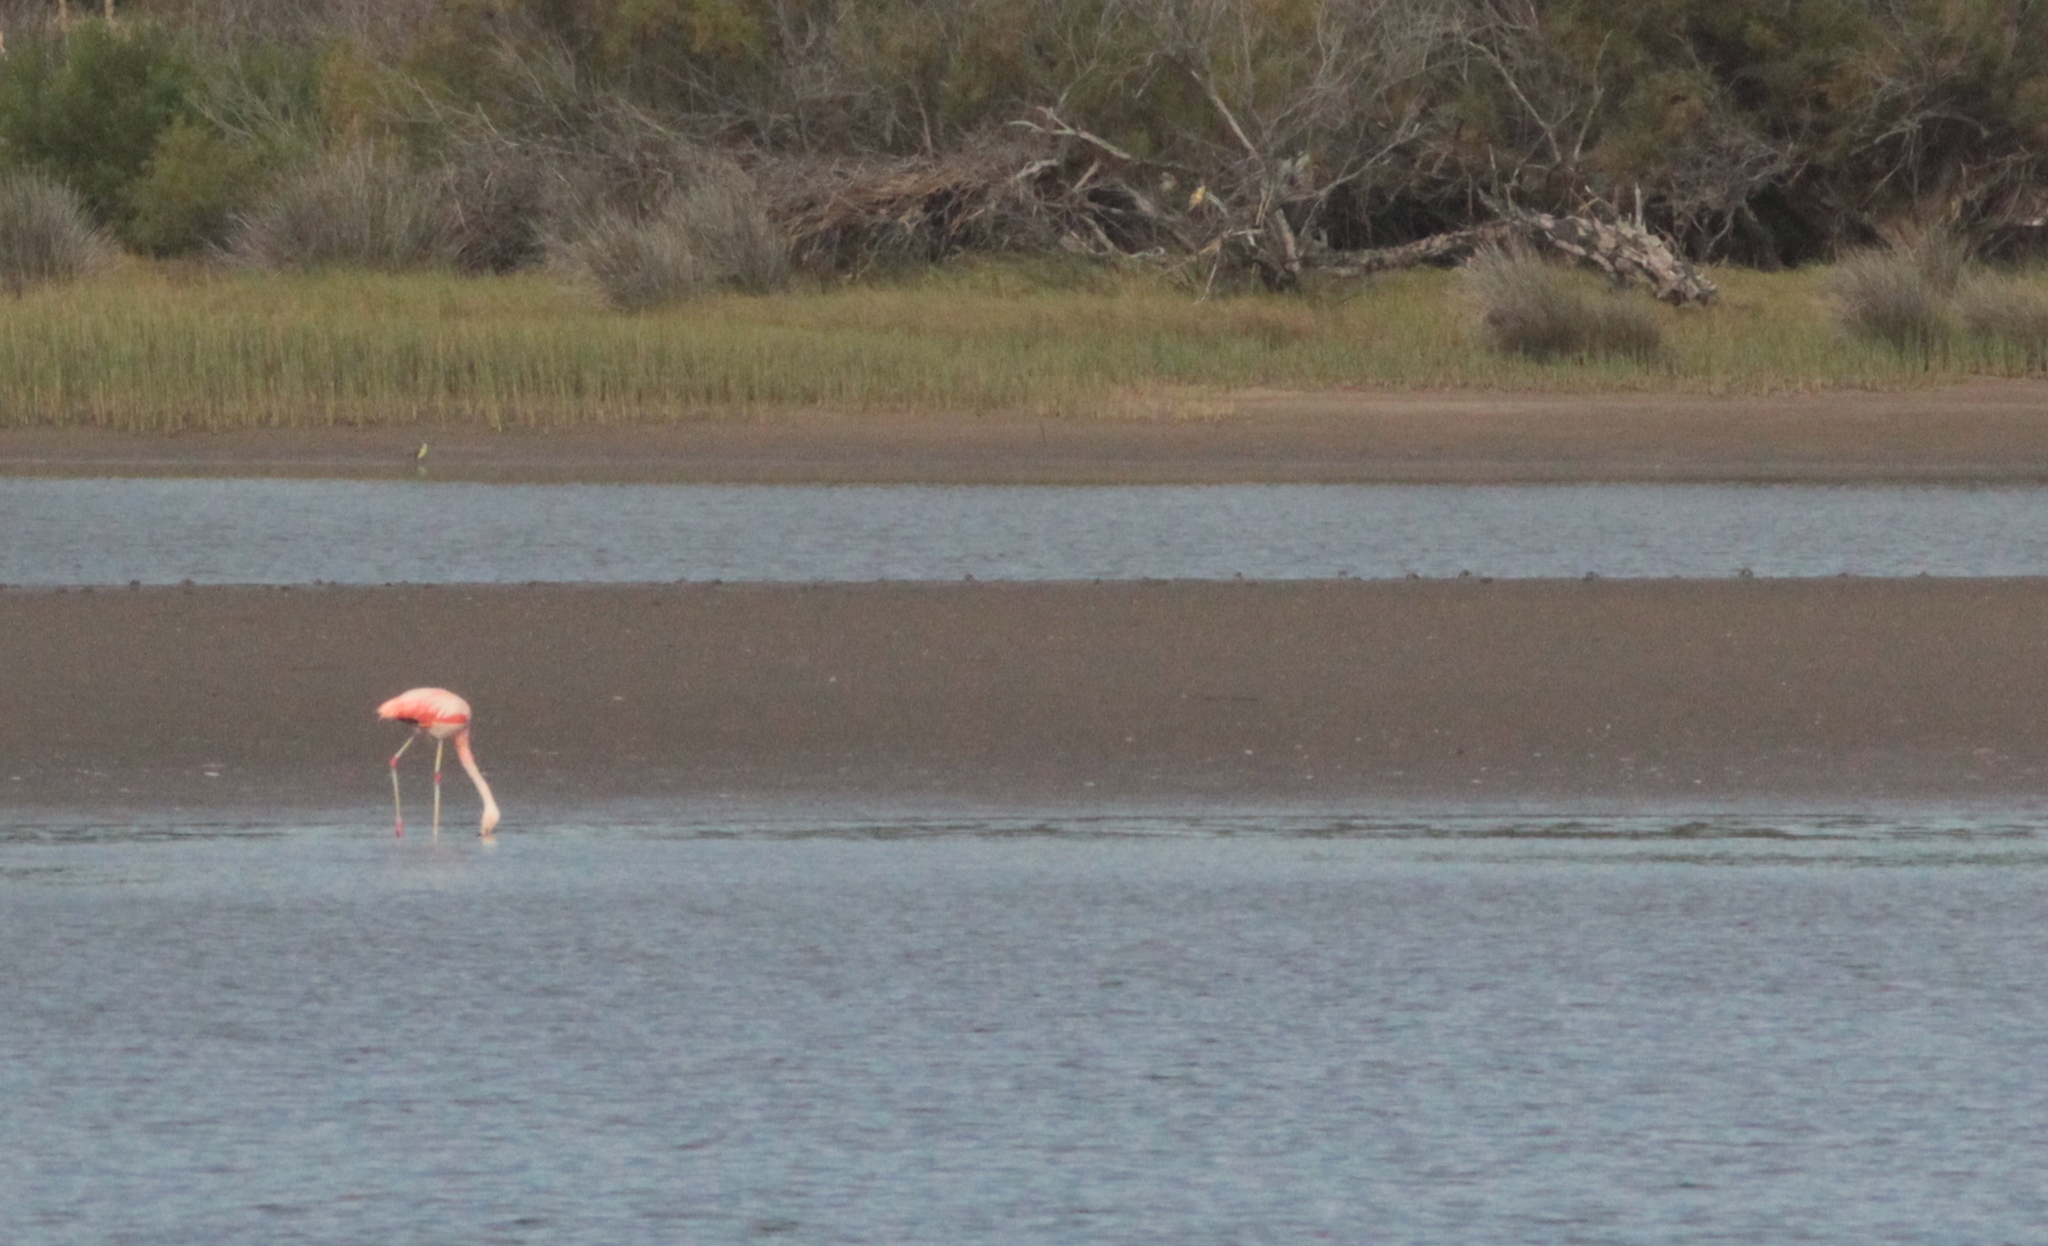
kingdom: Animalia
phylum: Chordata
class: Aves
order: Phoenicopteriformes
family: Phoenicopteridae
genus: Phoenicopterus
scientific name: Phoenicopterus chilensis
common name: Chilean flamingo
